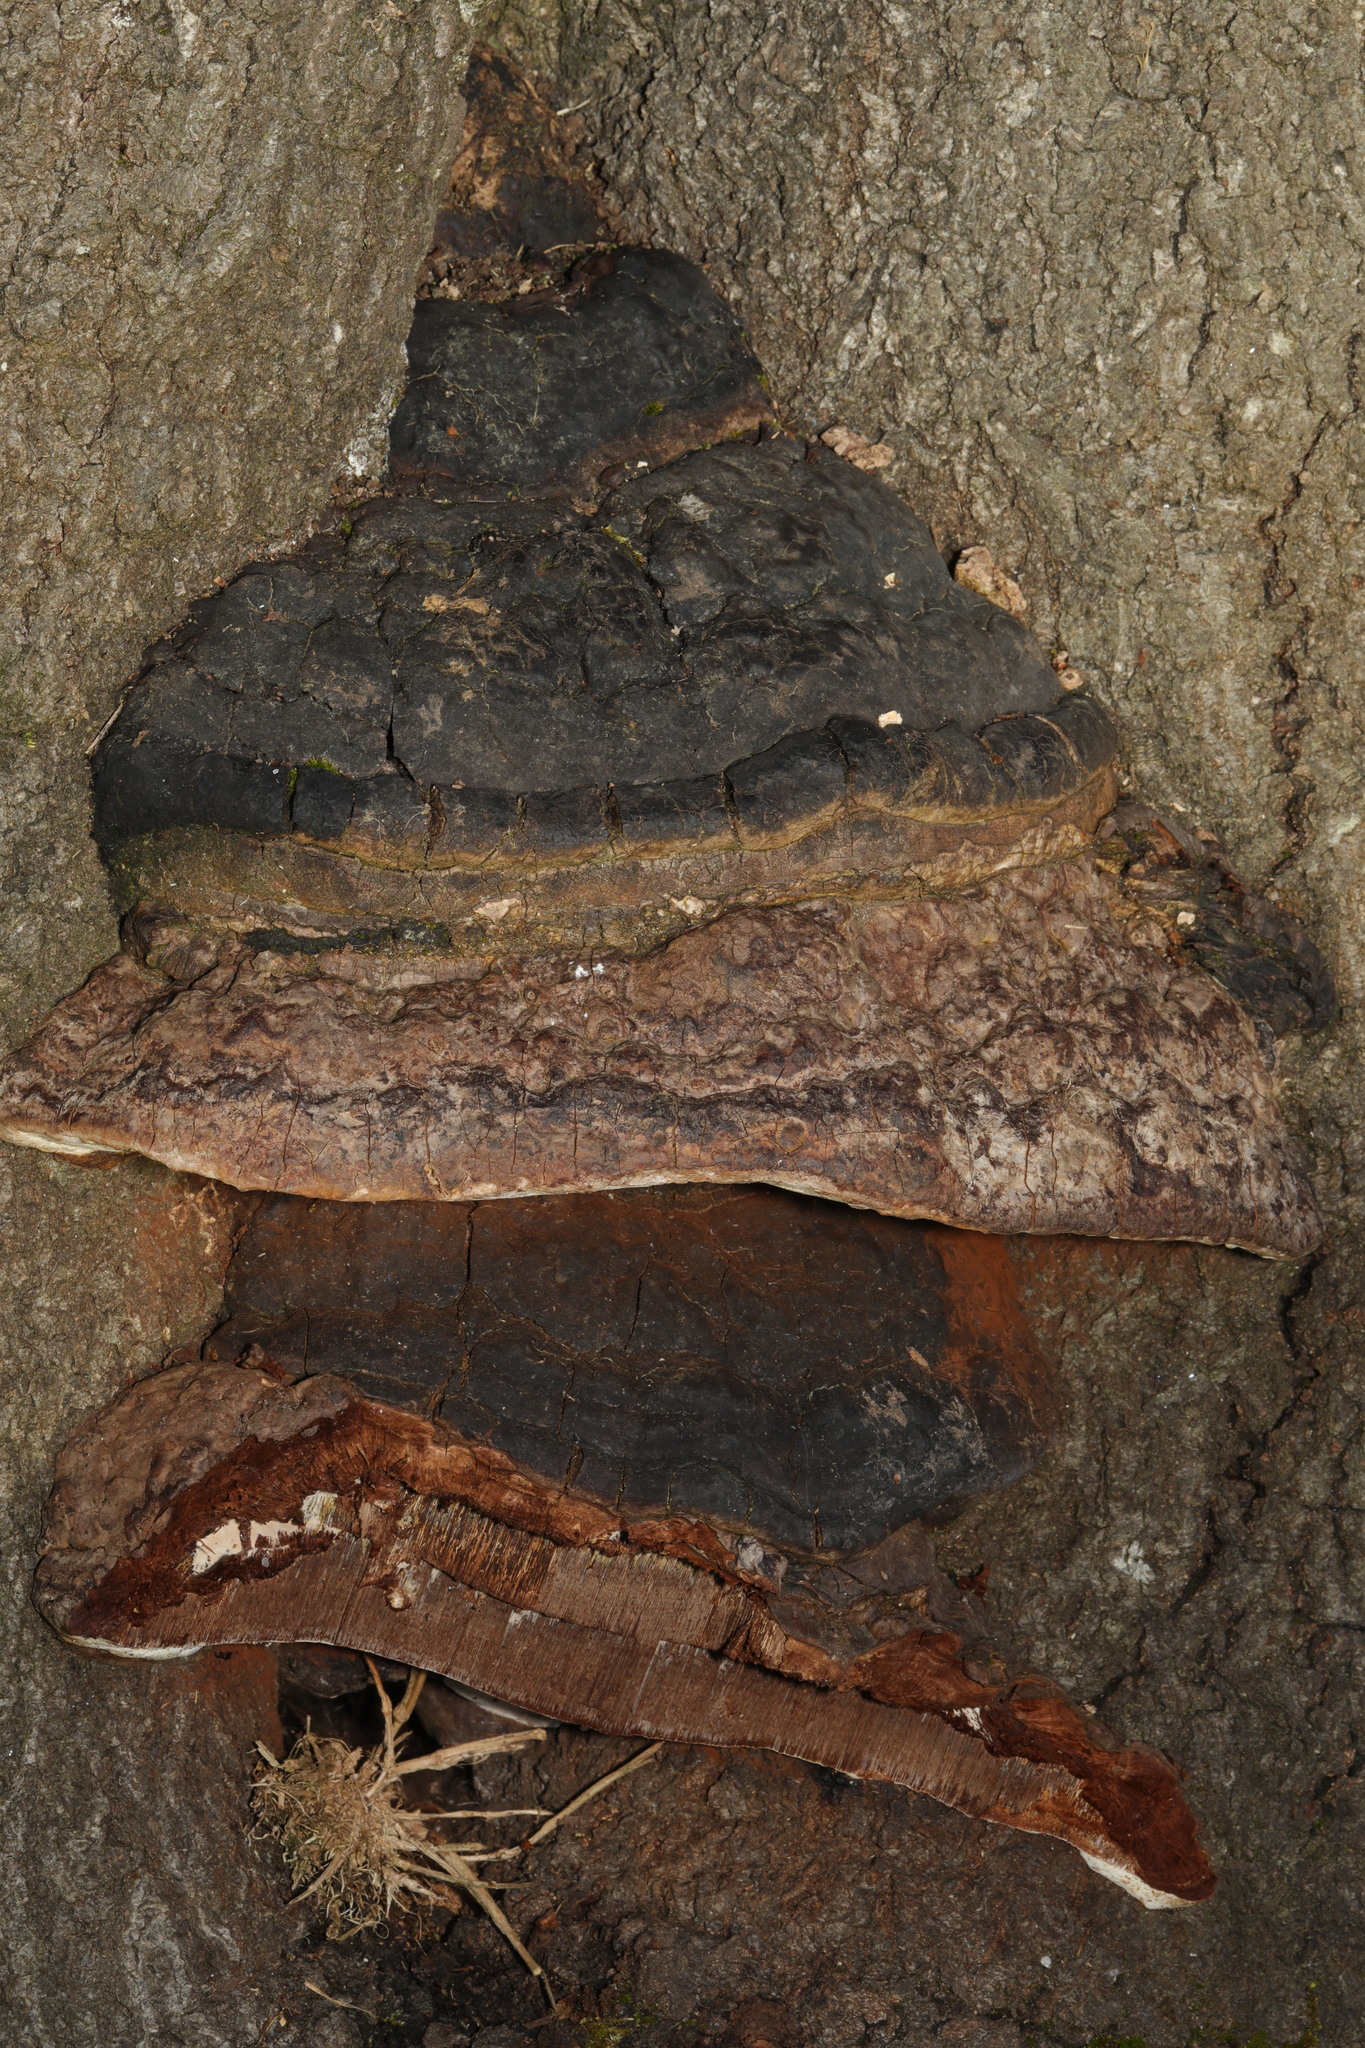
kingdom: Fungi
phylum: Basidiomycota
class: Agaricomycetes
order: Polyporales
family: Polyporaceae
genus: Fomes
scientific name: Fomes fomentarius
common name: Hoof fungus
